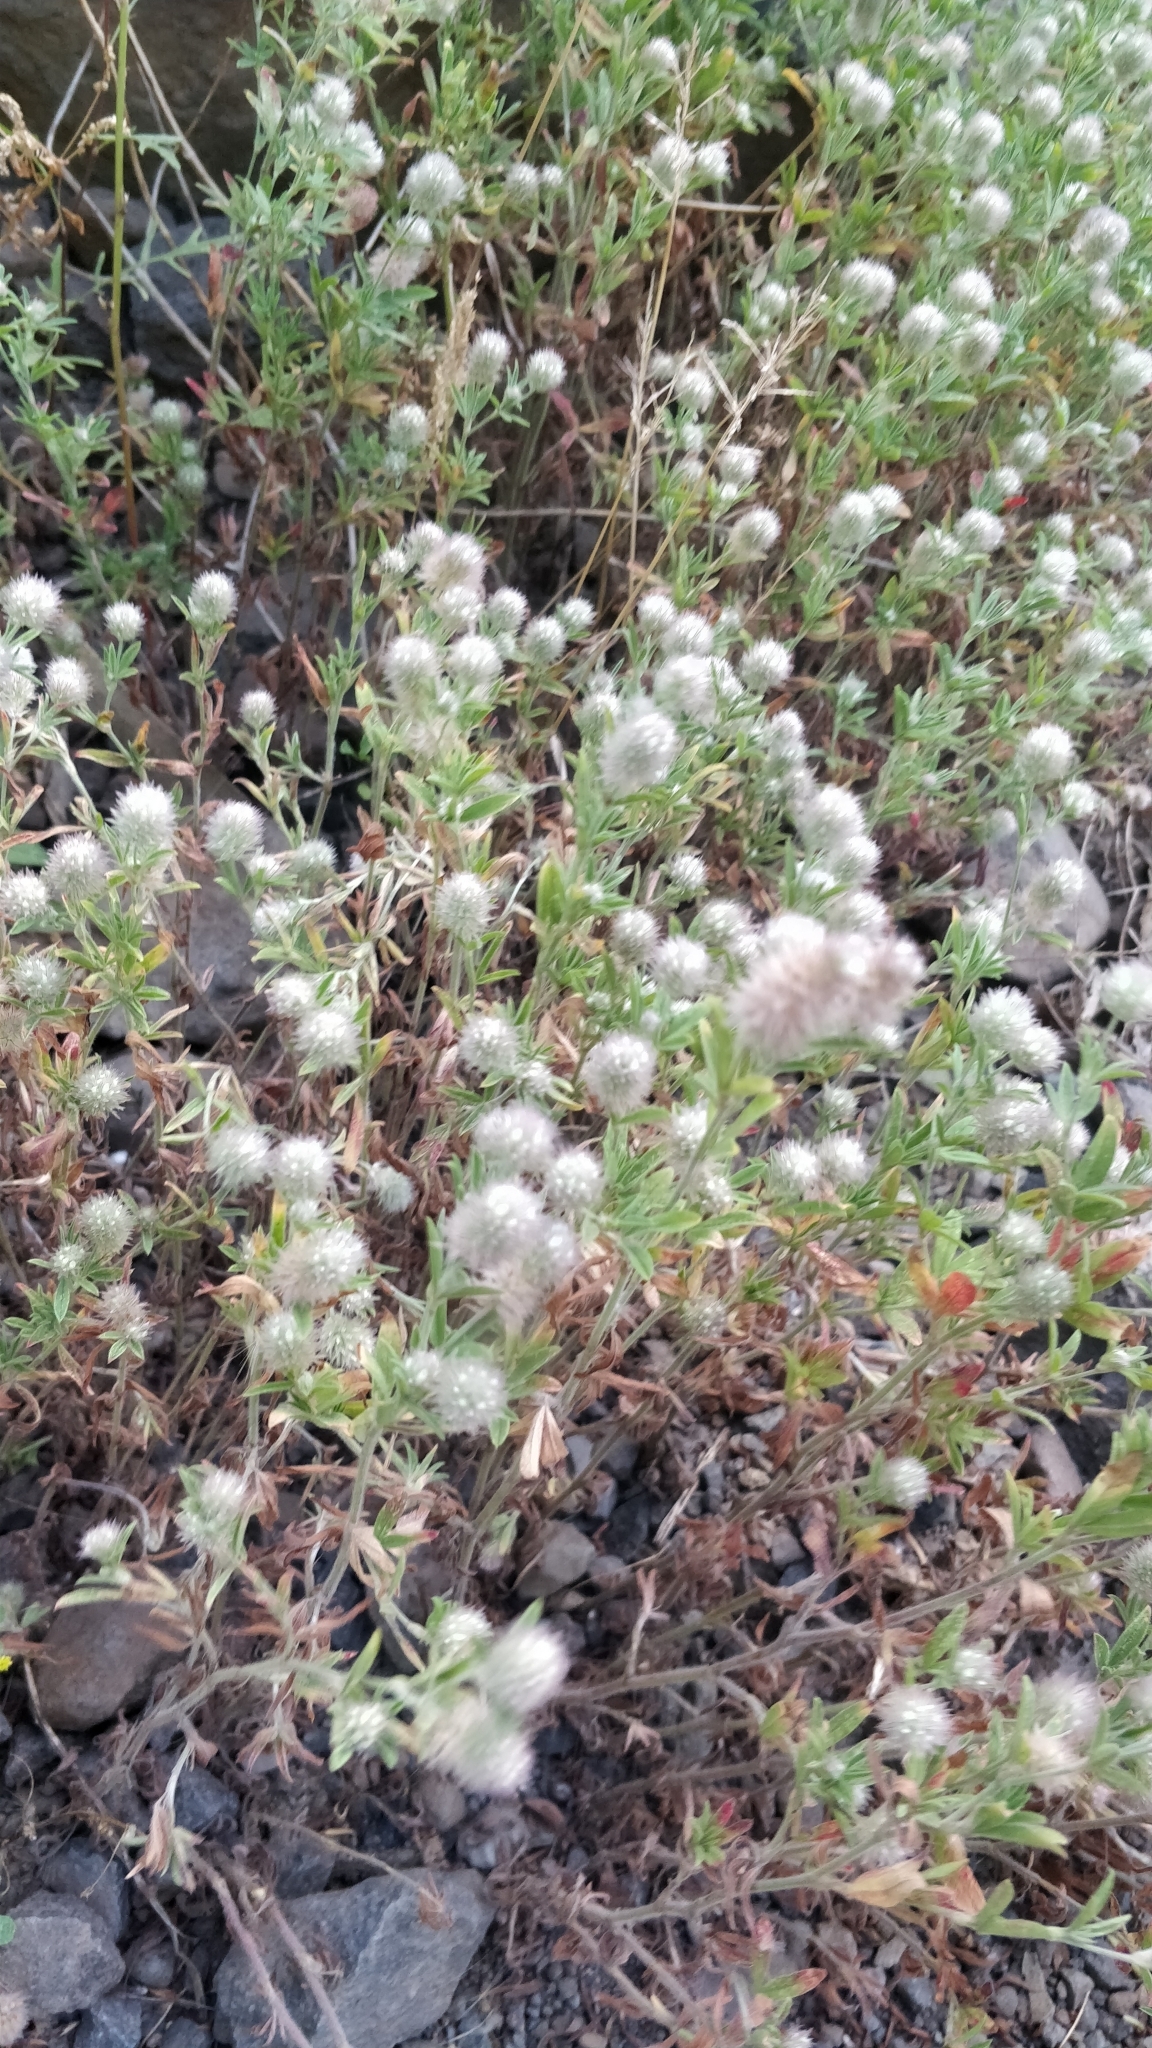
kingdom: Plantae
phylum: Tracheophyta
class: Magnoliopsida
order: Fabales
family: Fabaceae
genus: Trifolium
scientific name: Trifolium arvense
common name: Hare's-foot clover
